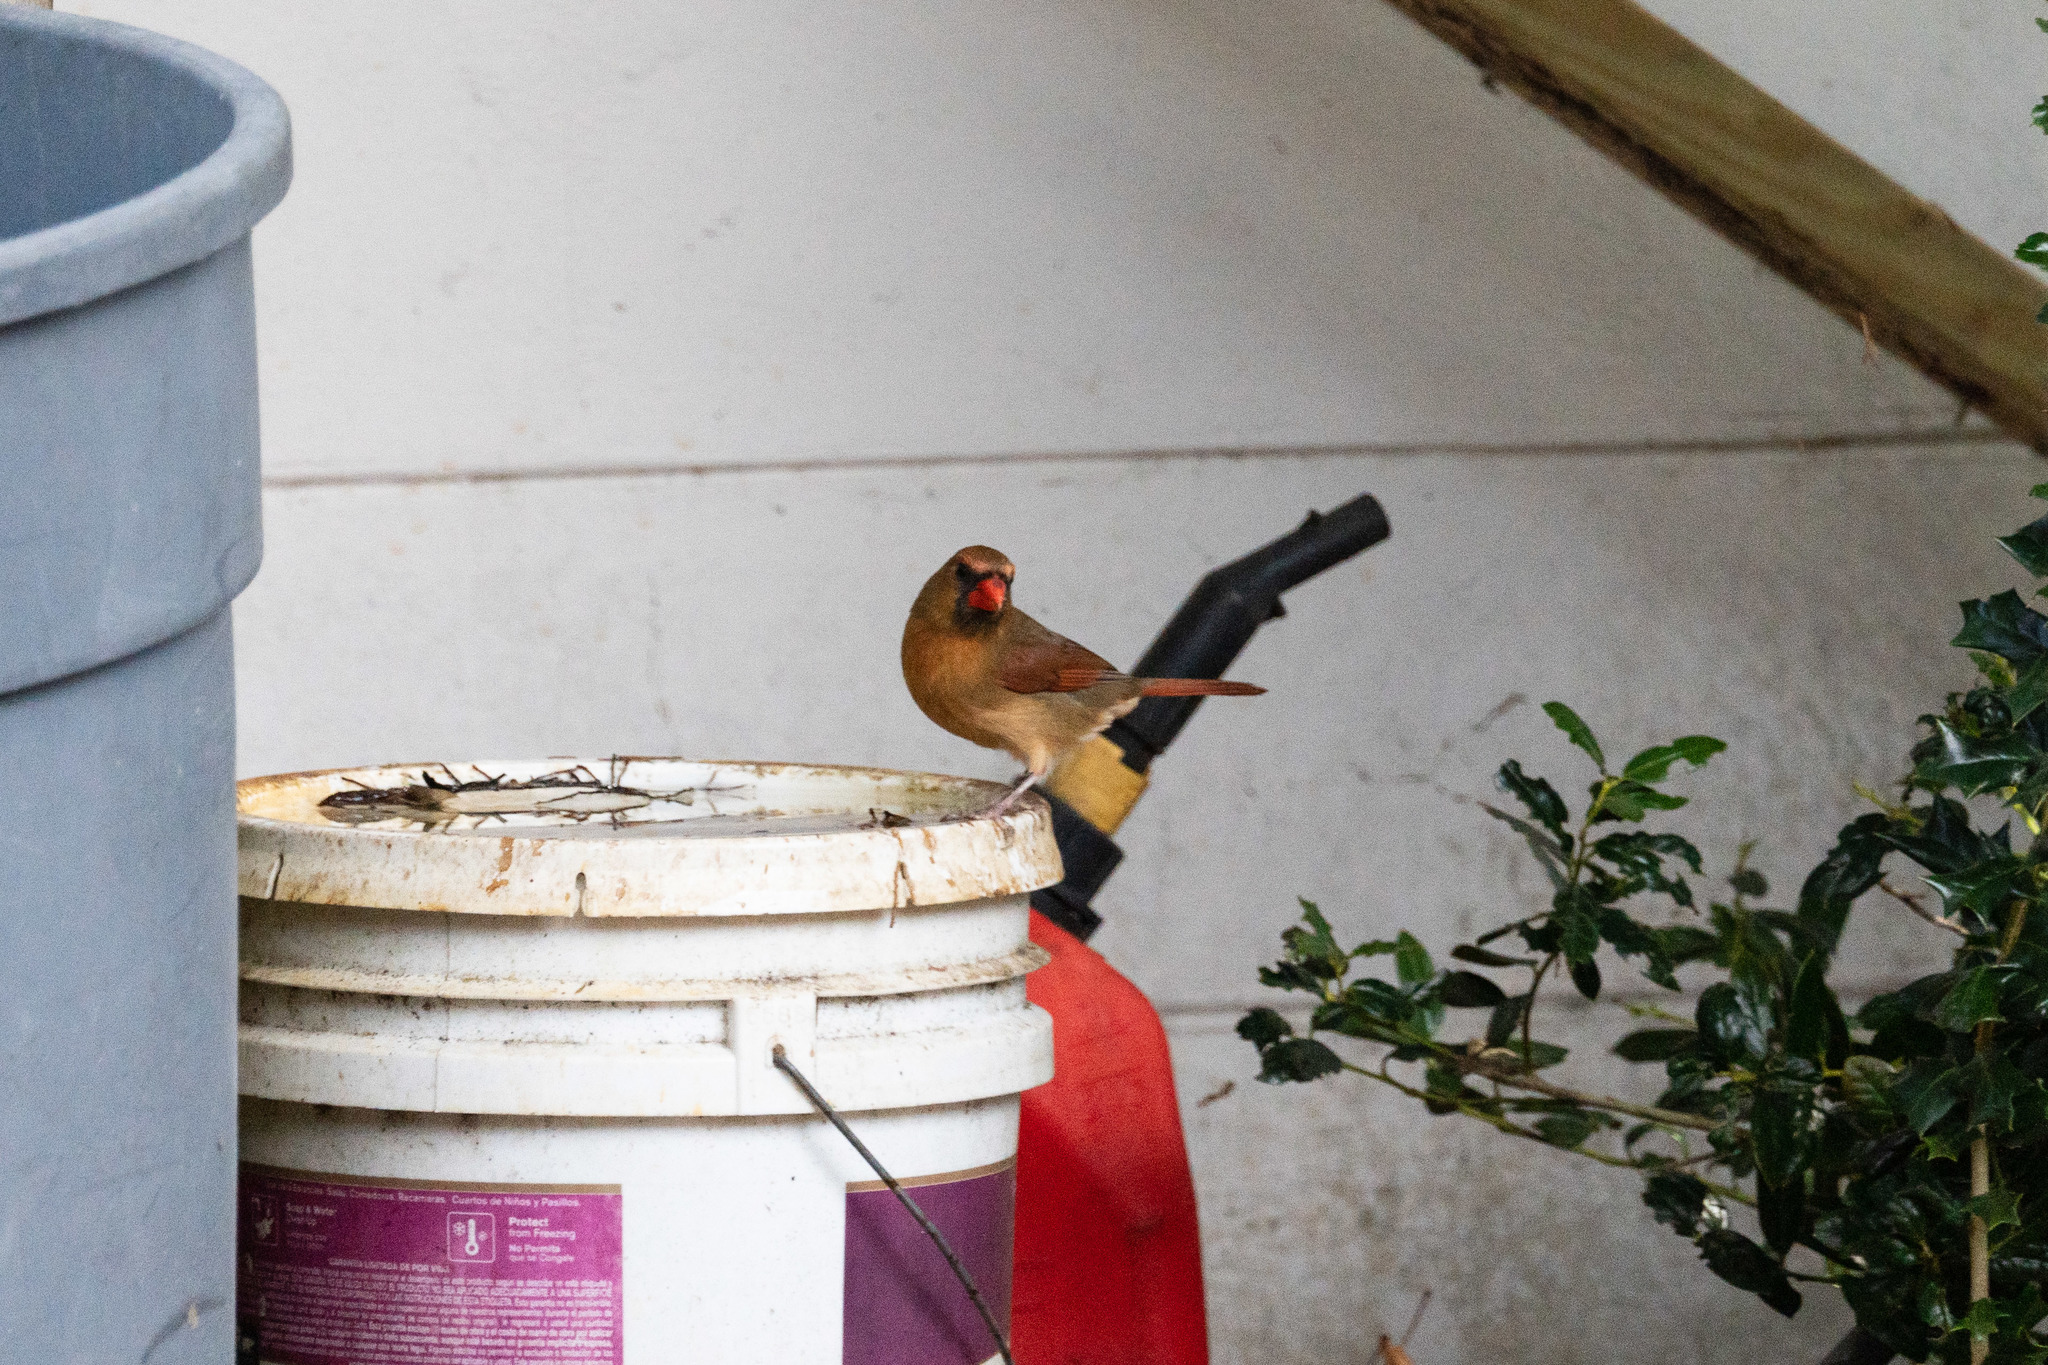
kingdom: Animalia
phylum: Chordata
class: Aves
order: Passeriformes
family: Cardinalidae
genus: Cardinalis
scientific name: Cardinalis cardinalis
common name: Northern cardinal
